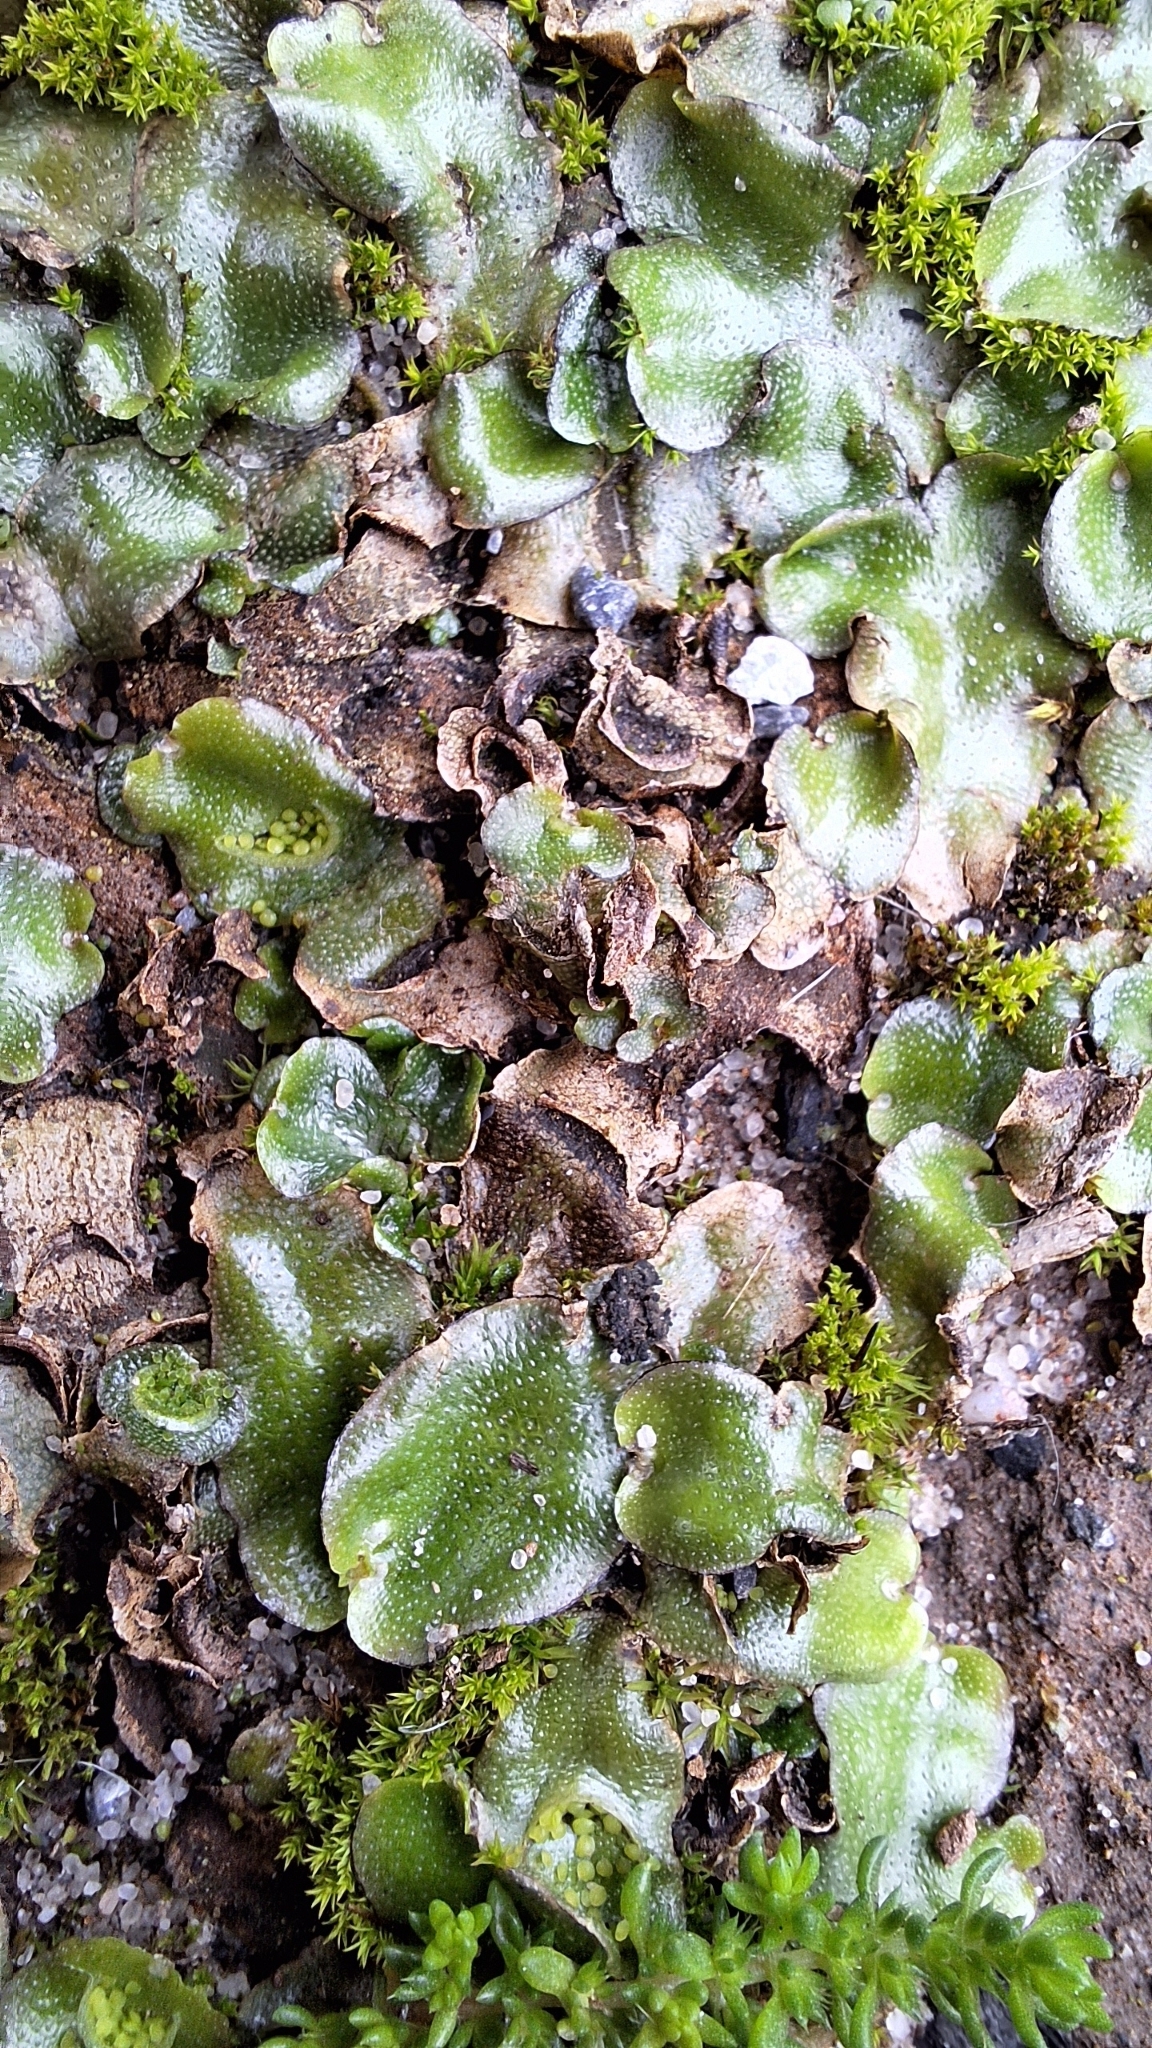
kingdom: Plantae
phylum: Marchantiophyta
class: Marchantiopsida
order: Lunulariales
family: Lunulariaceae
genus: Lunularia
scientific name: Lunularia cruciata
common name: Crescent-cup liverwort
